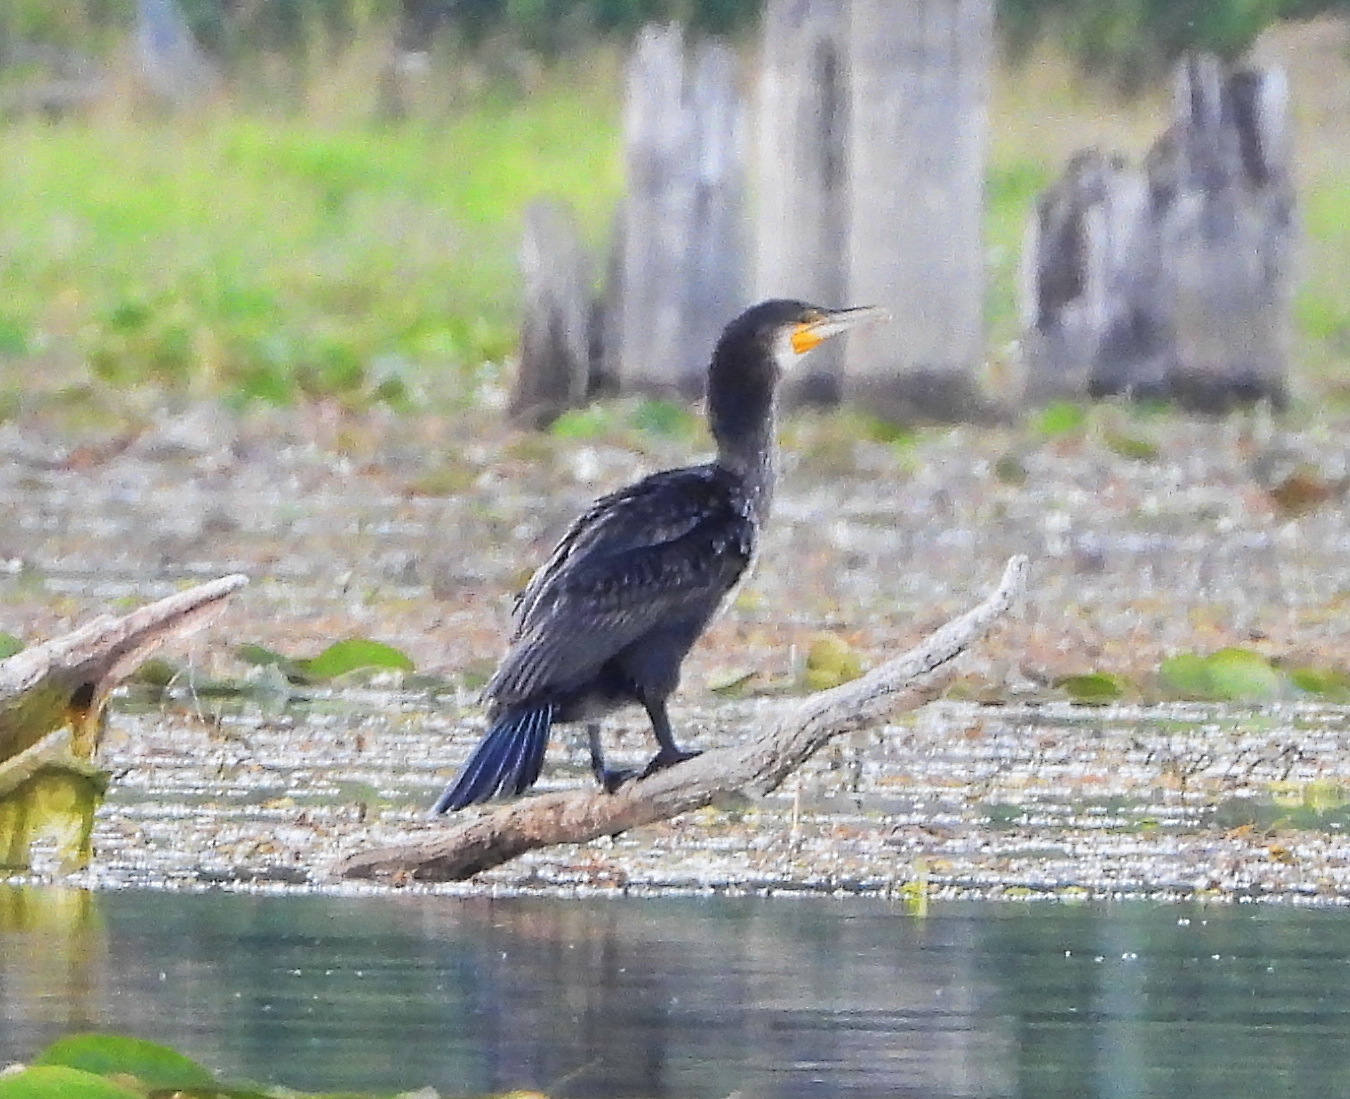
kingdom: Animalia
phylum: Chordata
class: Aves
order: Suliformes
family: Phalacrocoracidae
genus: Phalacrocorax
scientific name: Phalacrocorax carbo
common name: Great cormorant
